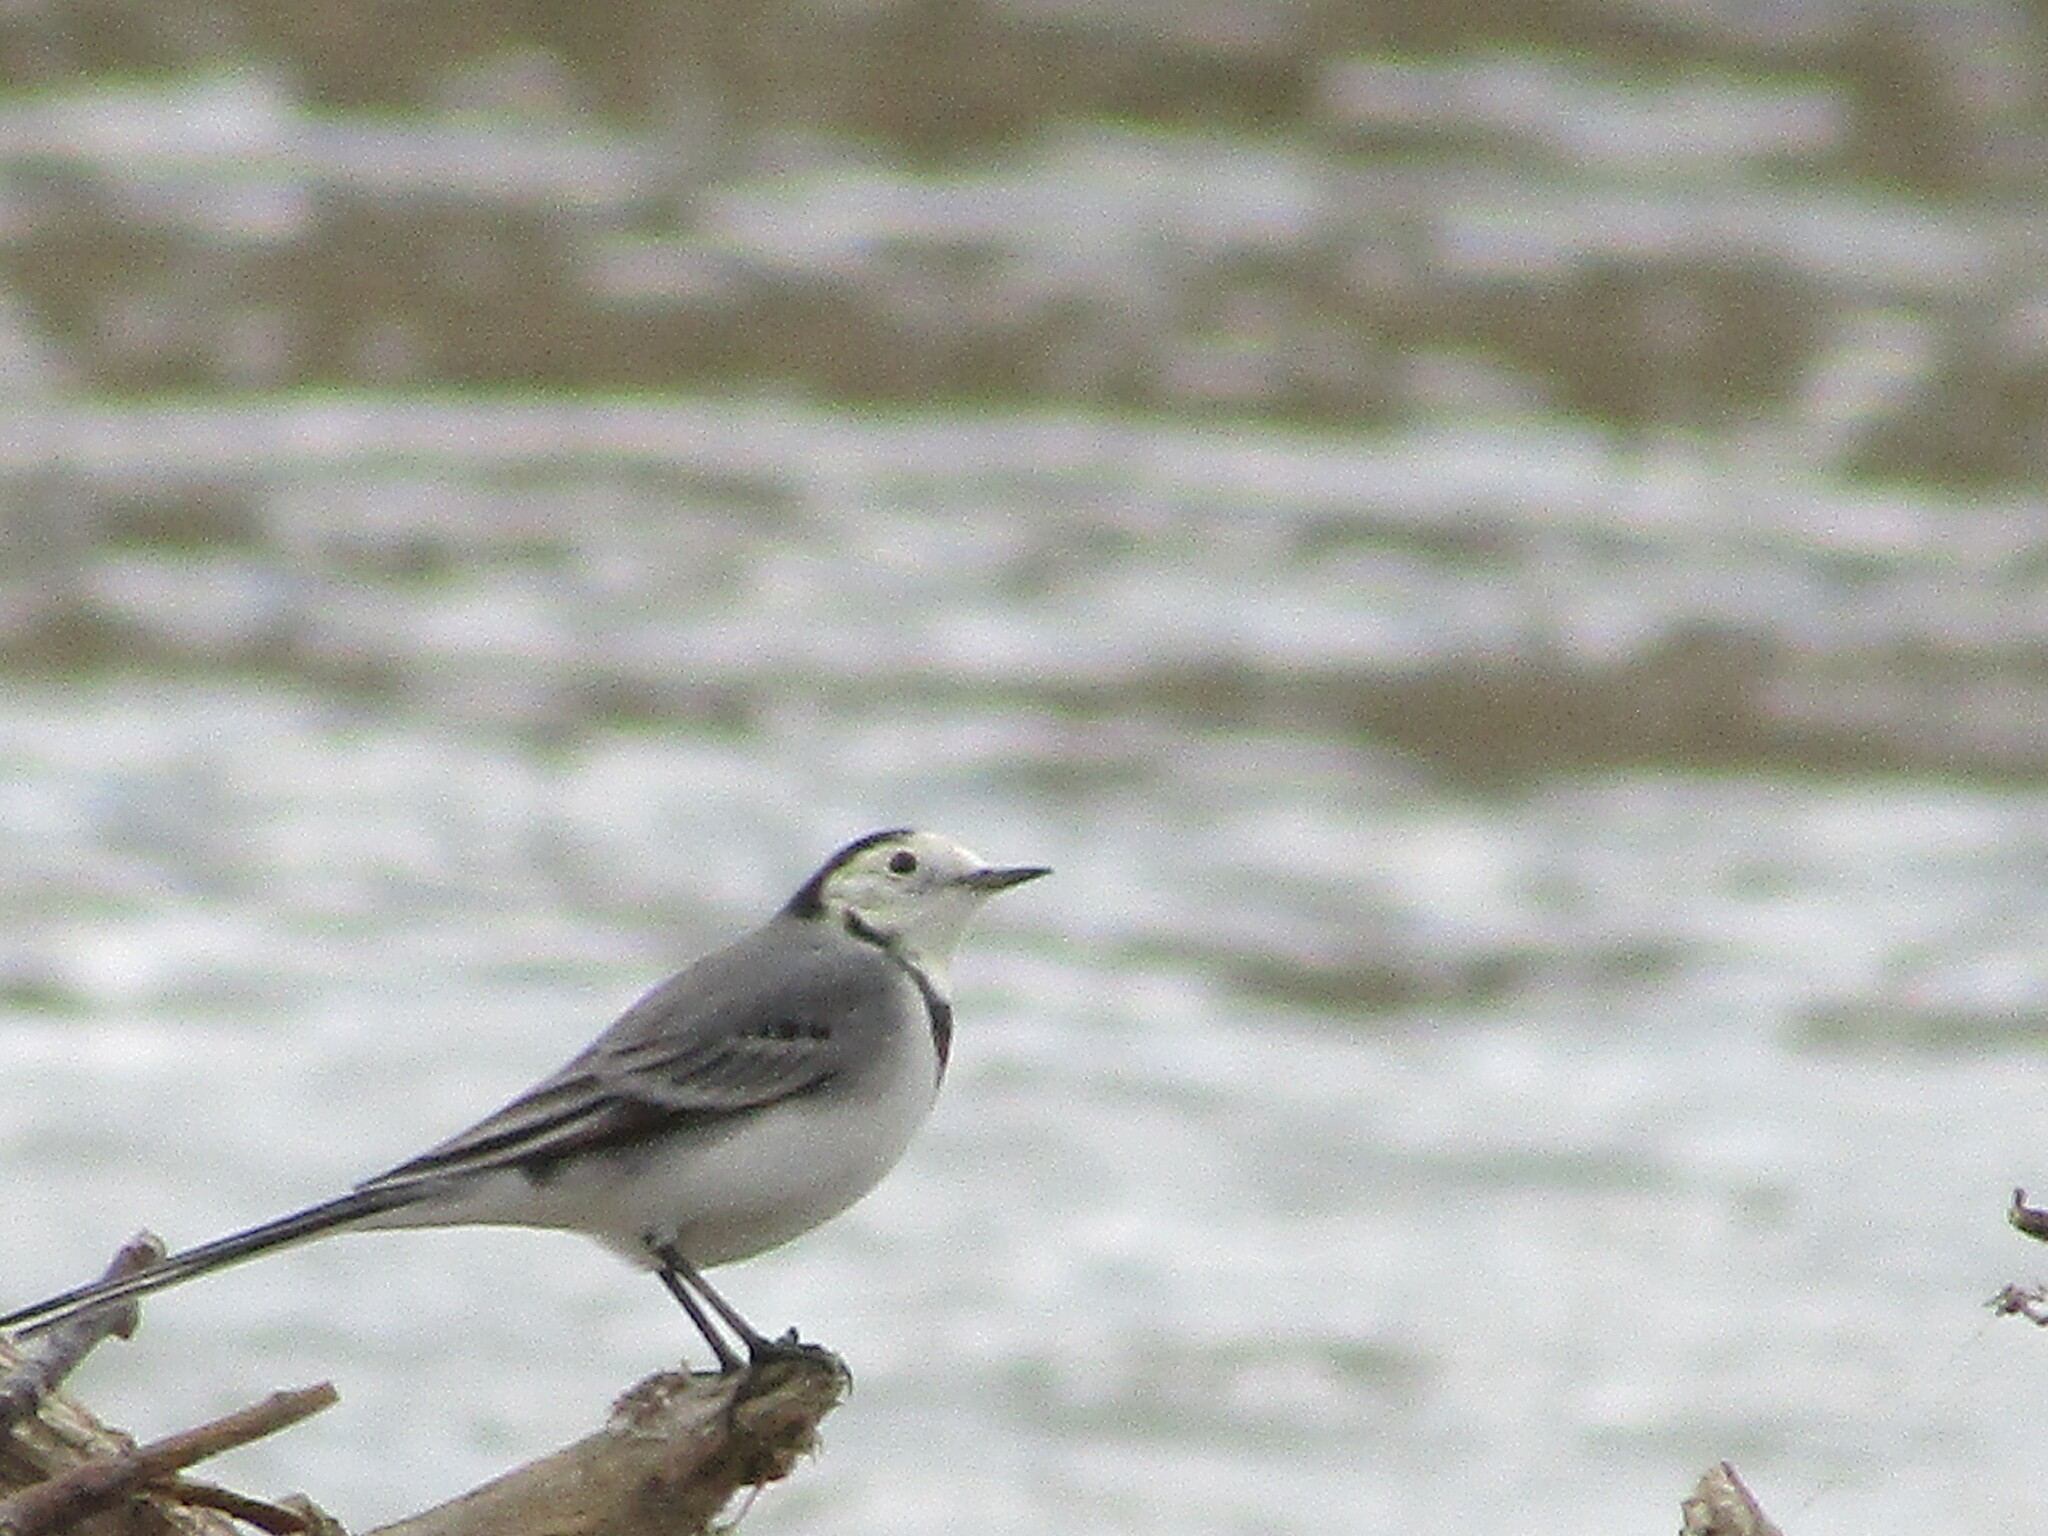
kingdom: Animalia
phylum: Chordata
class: Aves
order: Passeriformes
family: Motacillidae
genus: Motacilla
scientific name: Motacilla alba
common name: White wagtail
